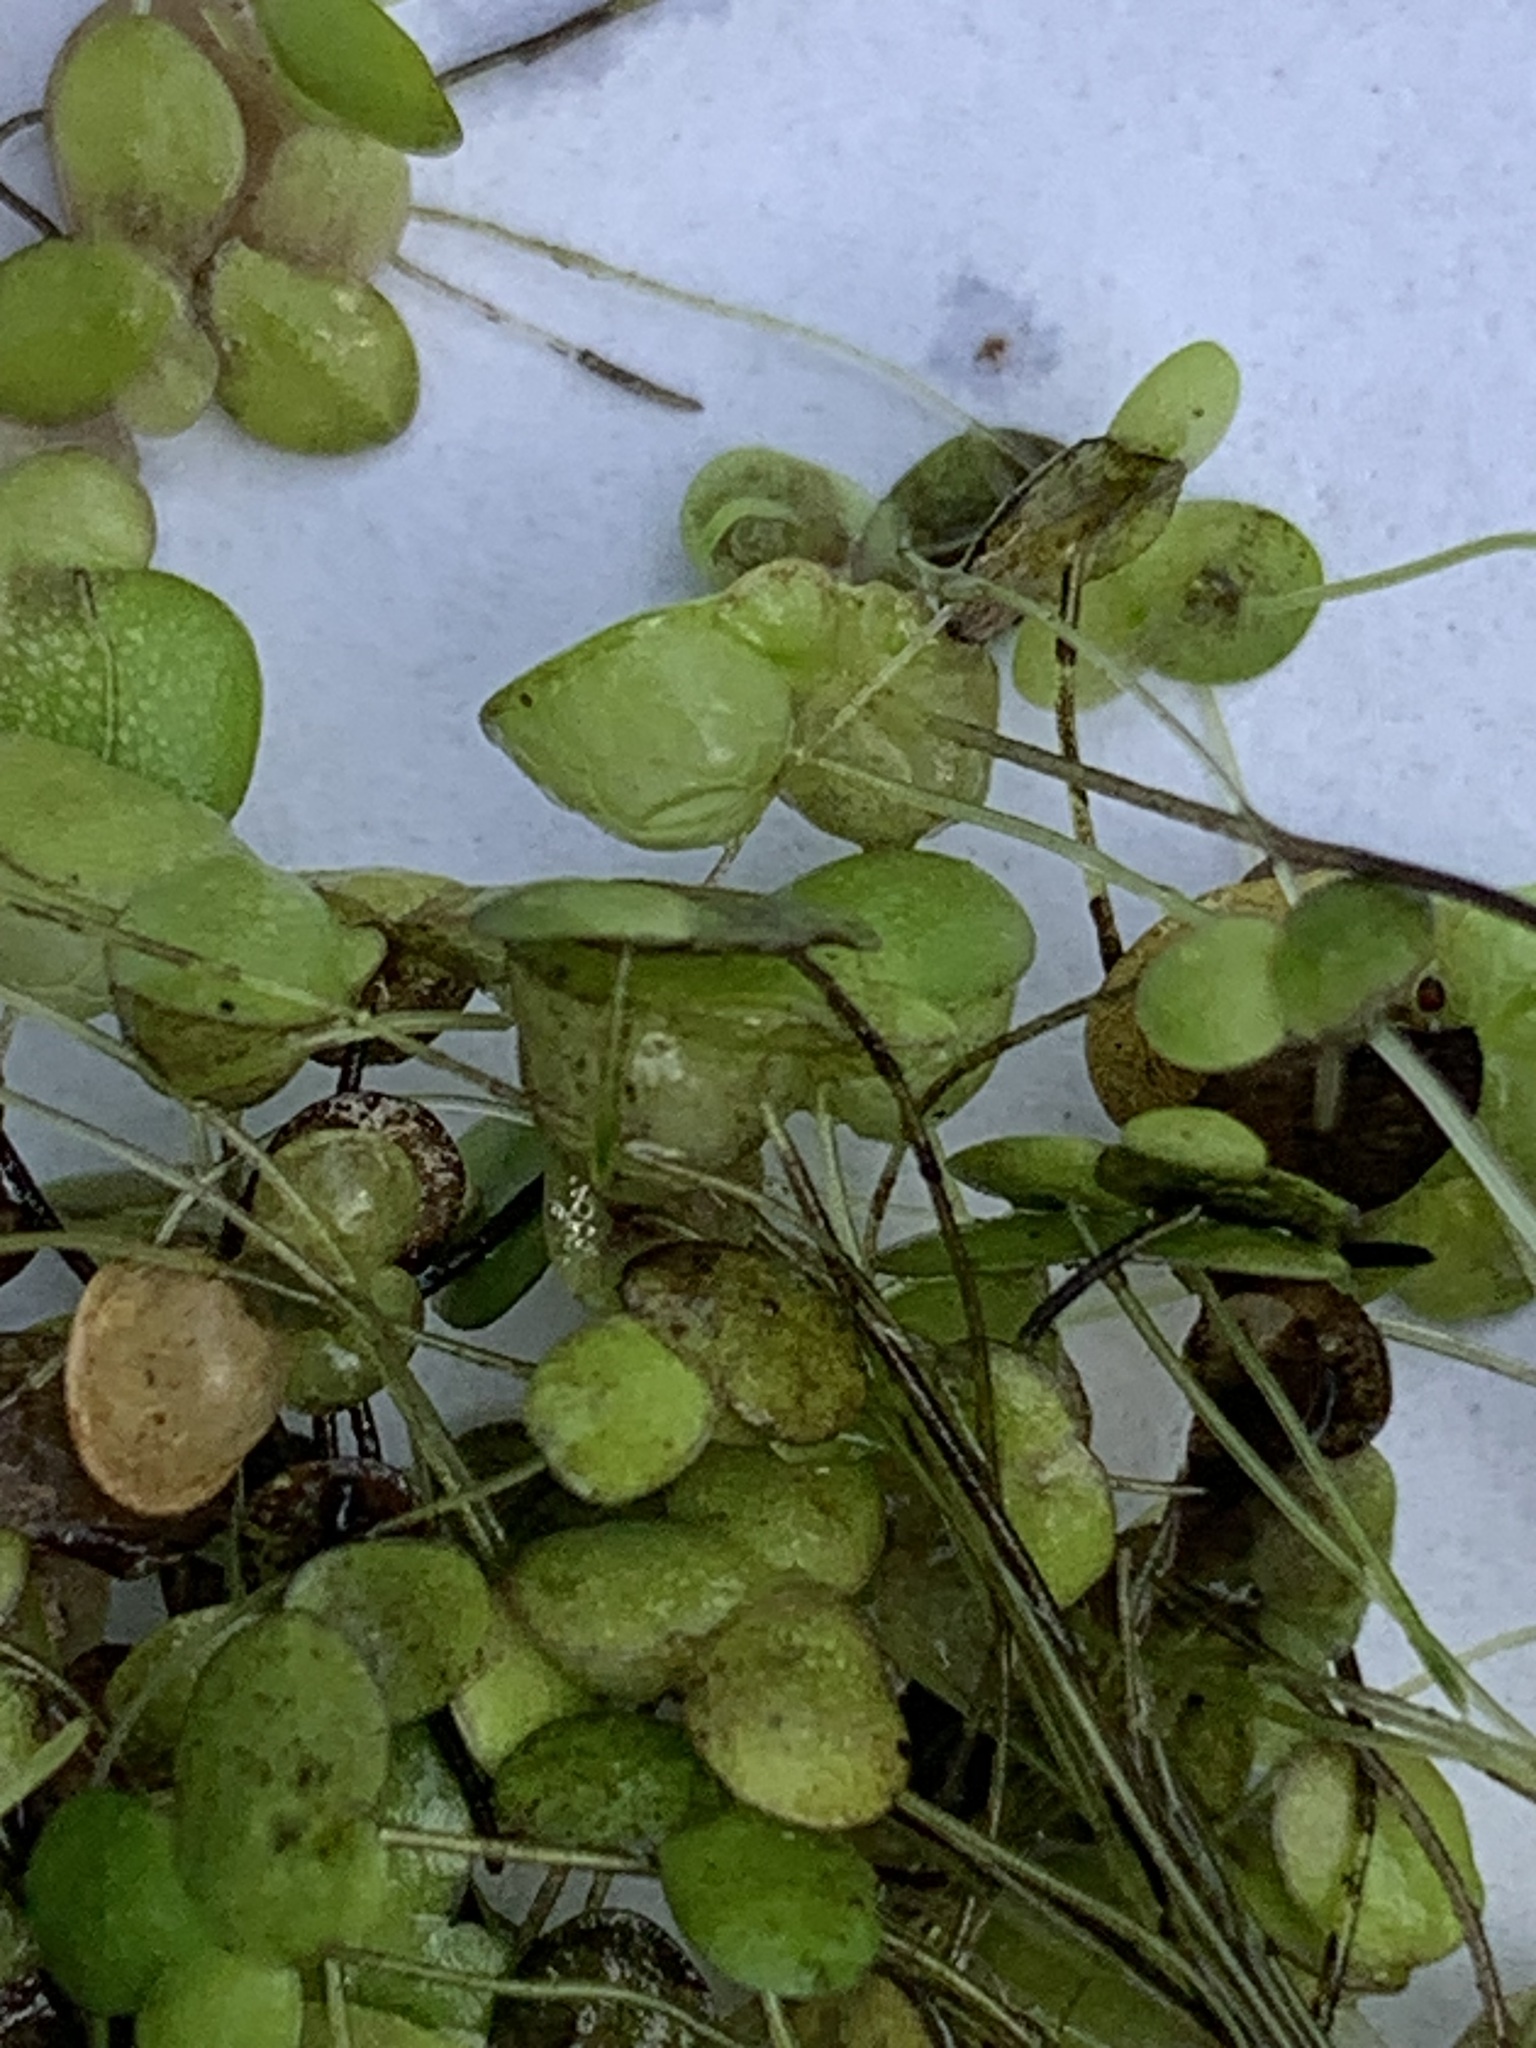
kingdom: Plantae
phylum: Tracheophyta
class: Liliopsida
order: Alismatales
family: Araceae
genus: Lemna
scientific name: Lemna gibba
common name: Fat duckweed
